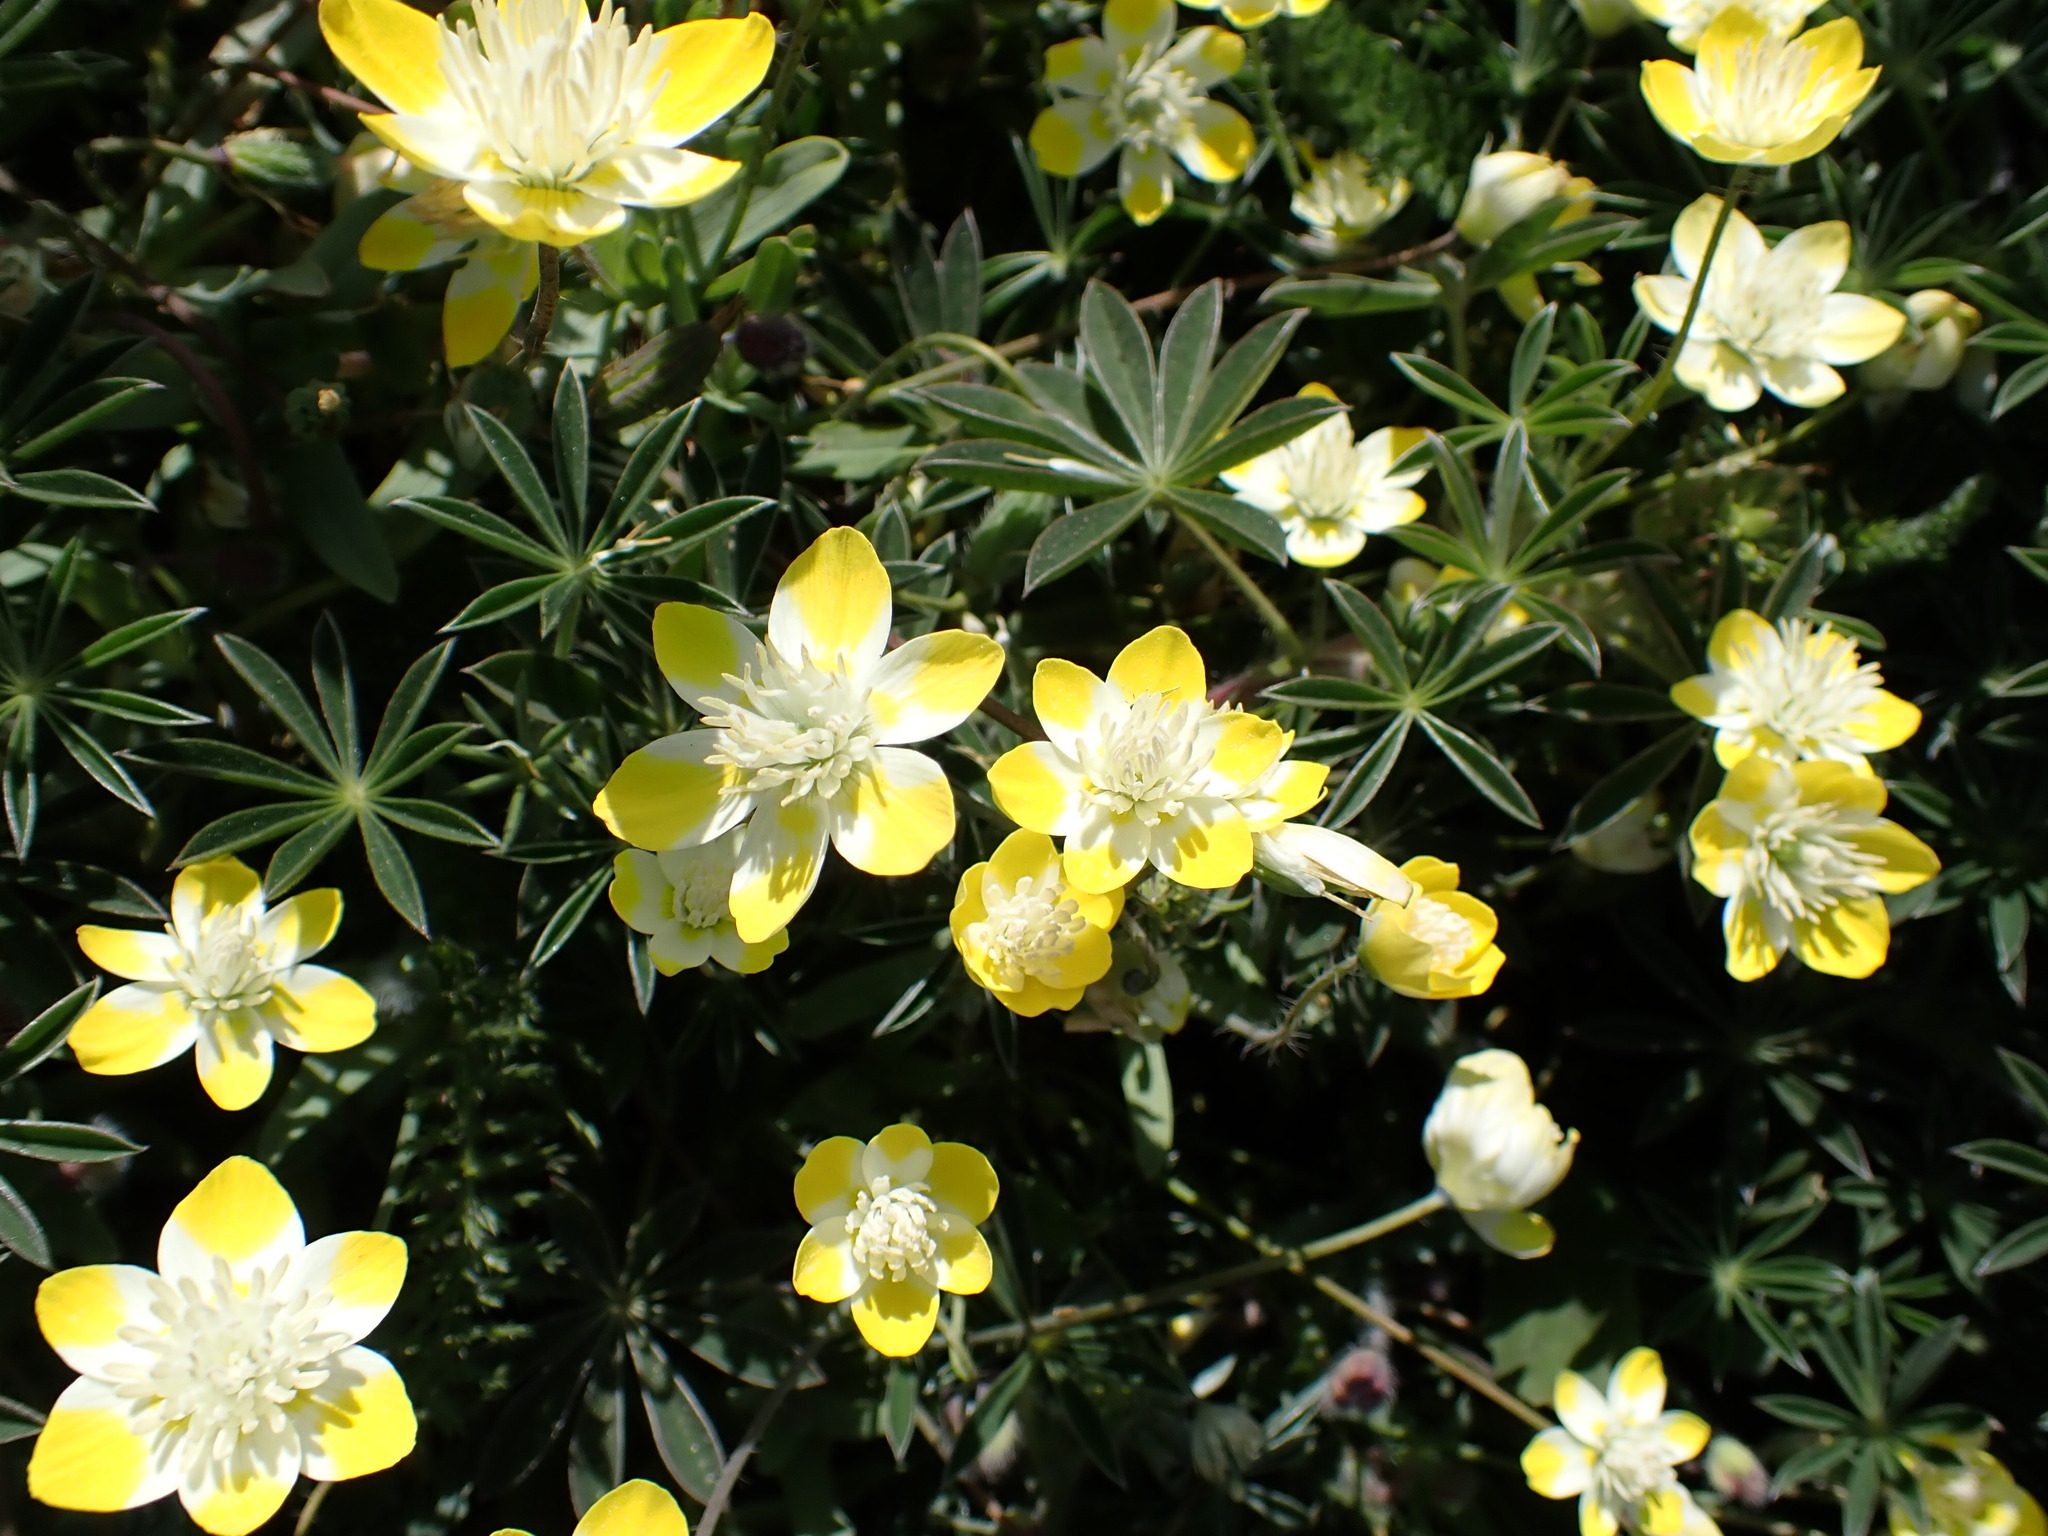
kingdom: Plantae
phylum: Tracheophyta
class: Magnoliopsida
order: Ranunculales
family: Papaveraceae
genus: Platystemon
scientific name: Platystemon californicus
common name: Cream-cups
